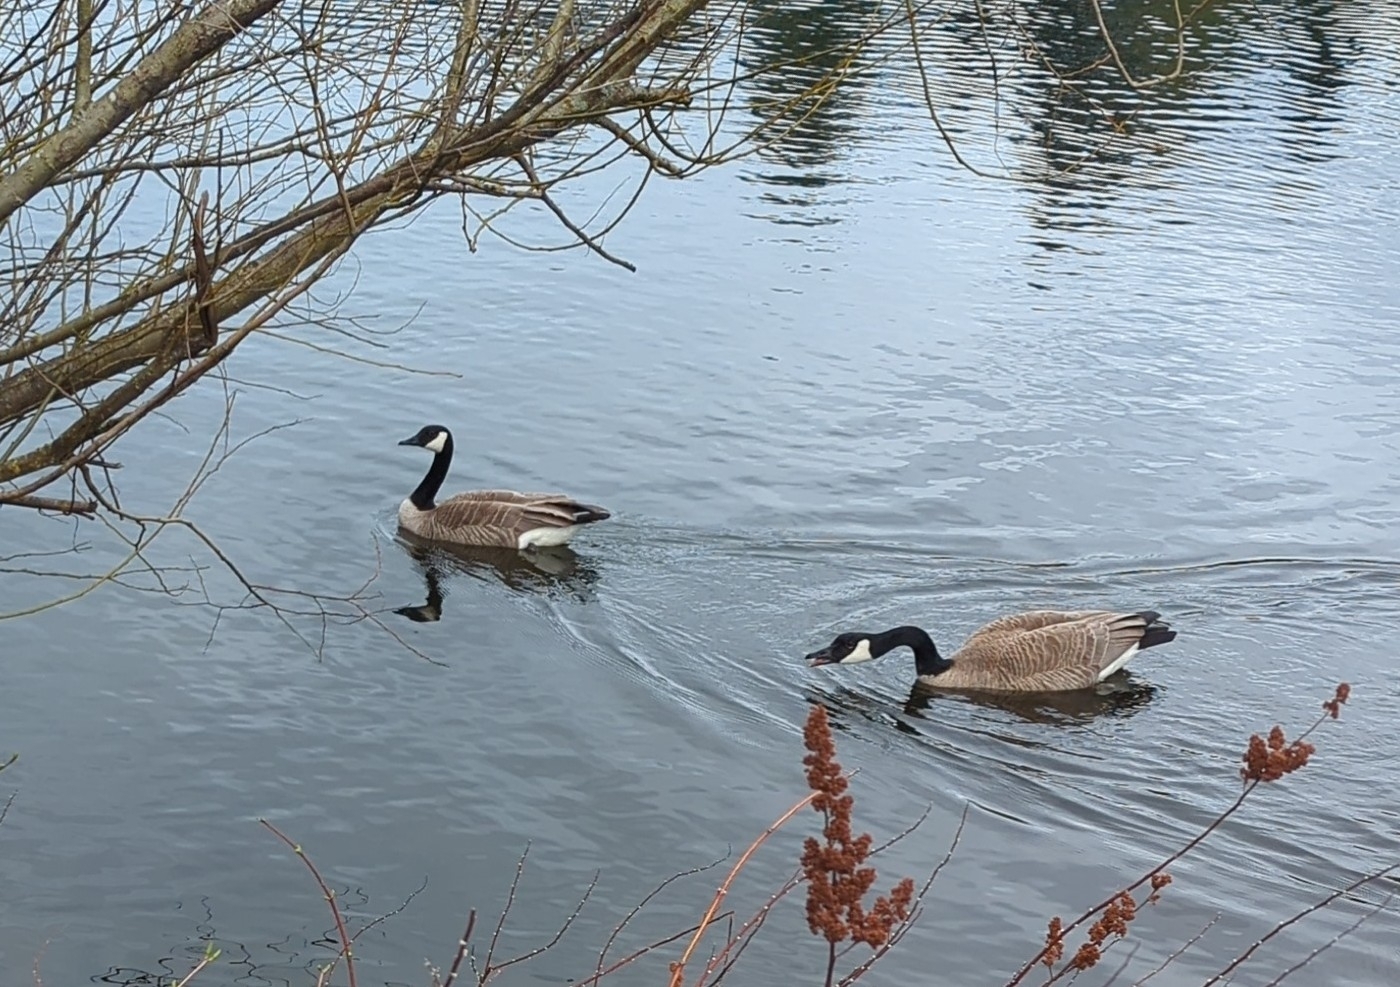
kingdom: Animalia
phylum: Chordata
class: Aves
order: Anseriformes
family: Anatidae
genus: Branta
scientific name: Branta canadensis
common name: Canada goose
